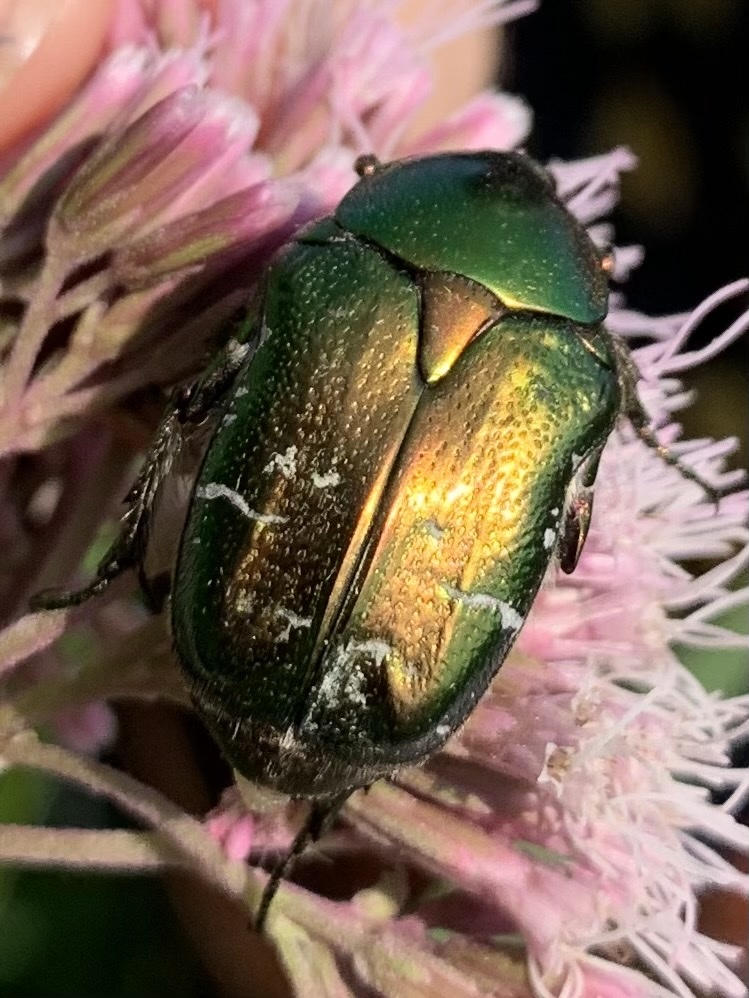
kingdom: Animalia
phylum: Arthropoda
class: Insecta
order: Coleoptera
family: Scarabaeidae
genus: Cetonia
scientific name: Cetonia aurata
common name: Rose chafer
